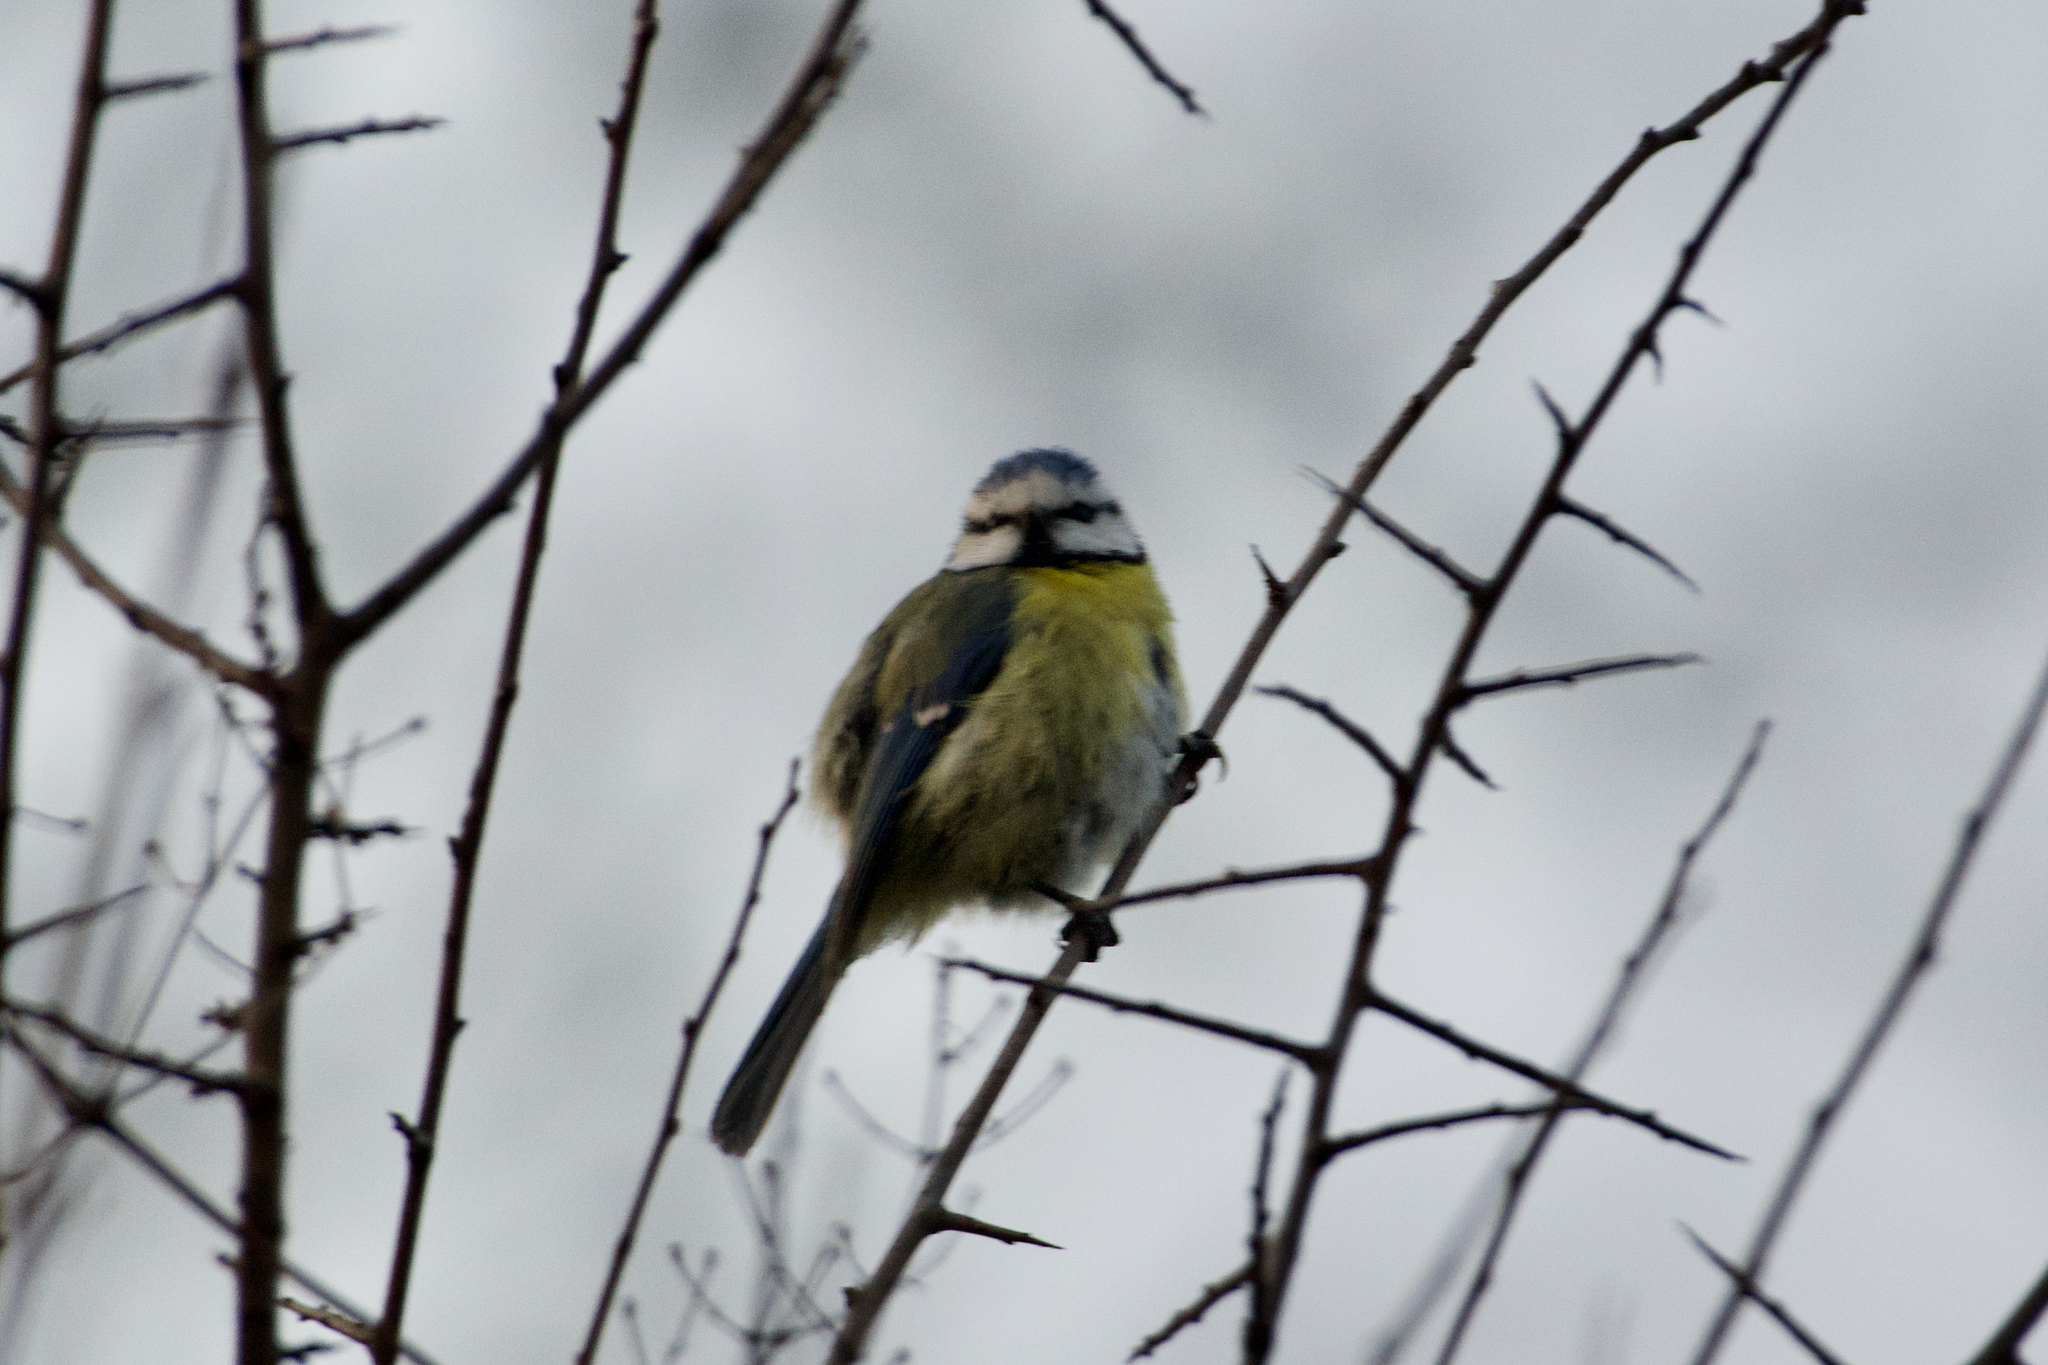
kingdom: Animalia
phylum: Chordata
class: Aves
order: Passeriformes
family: Paridae
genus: Cyanistes
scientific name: Cyanistes caeruleus
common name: Eurasian blue tit
